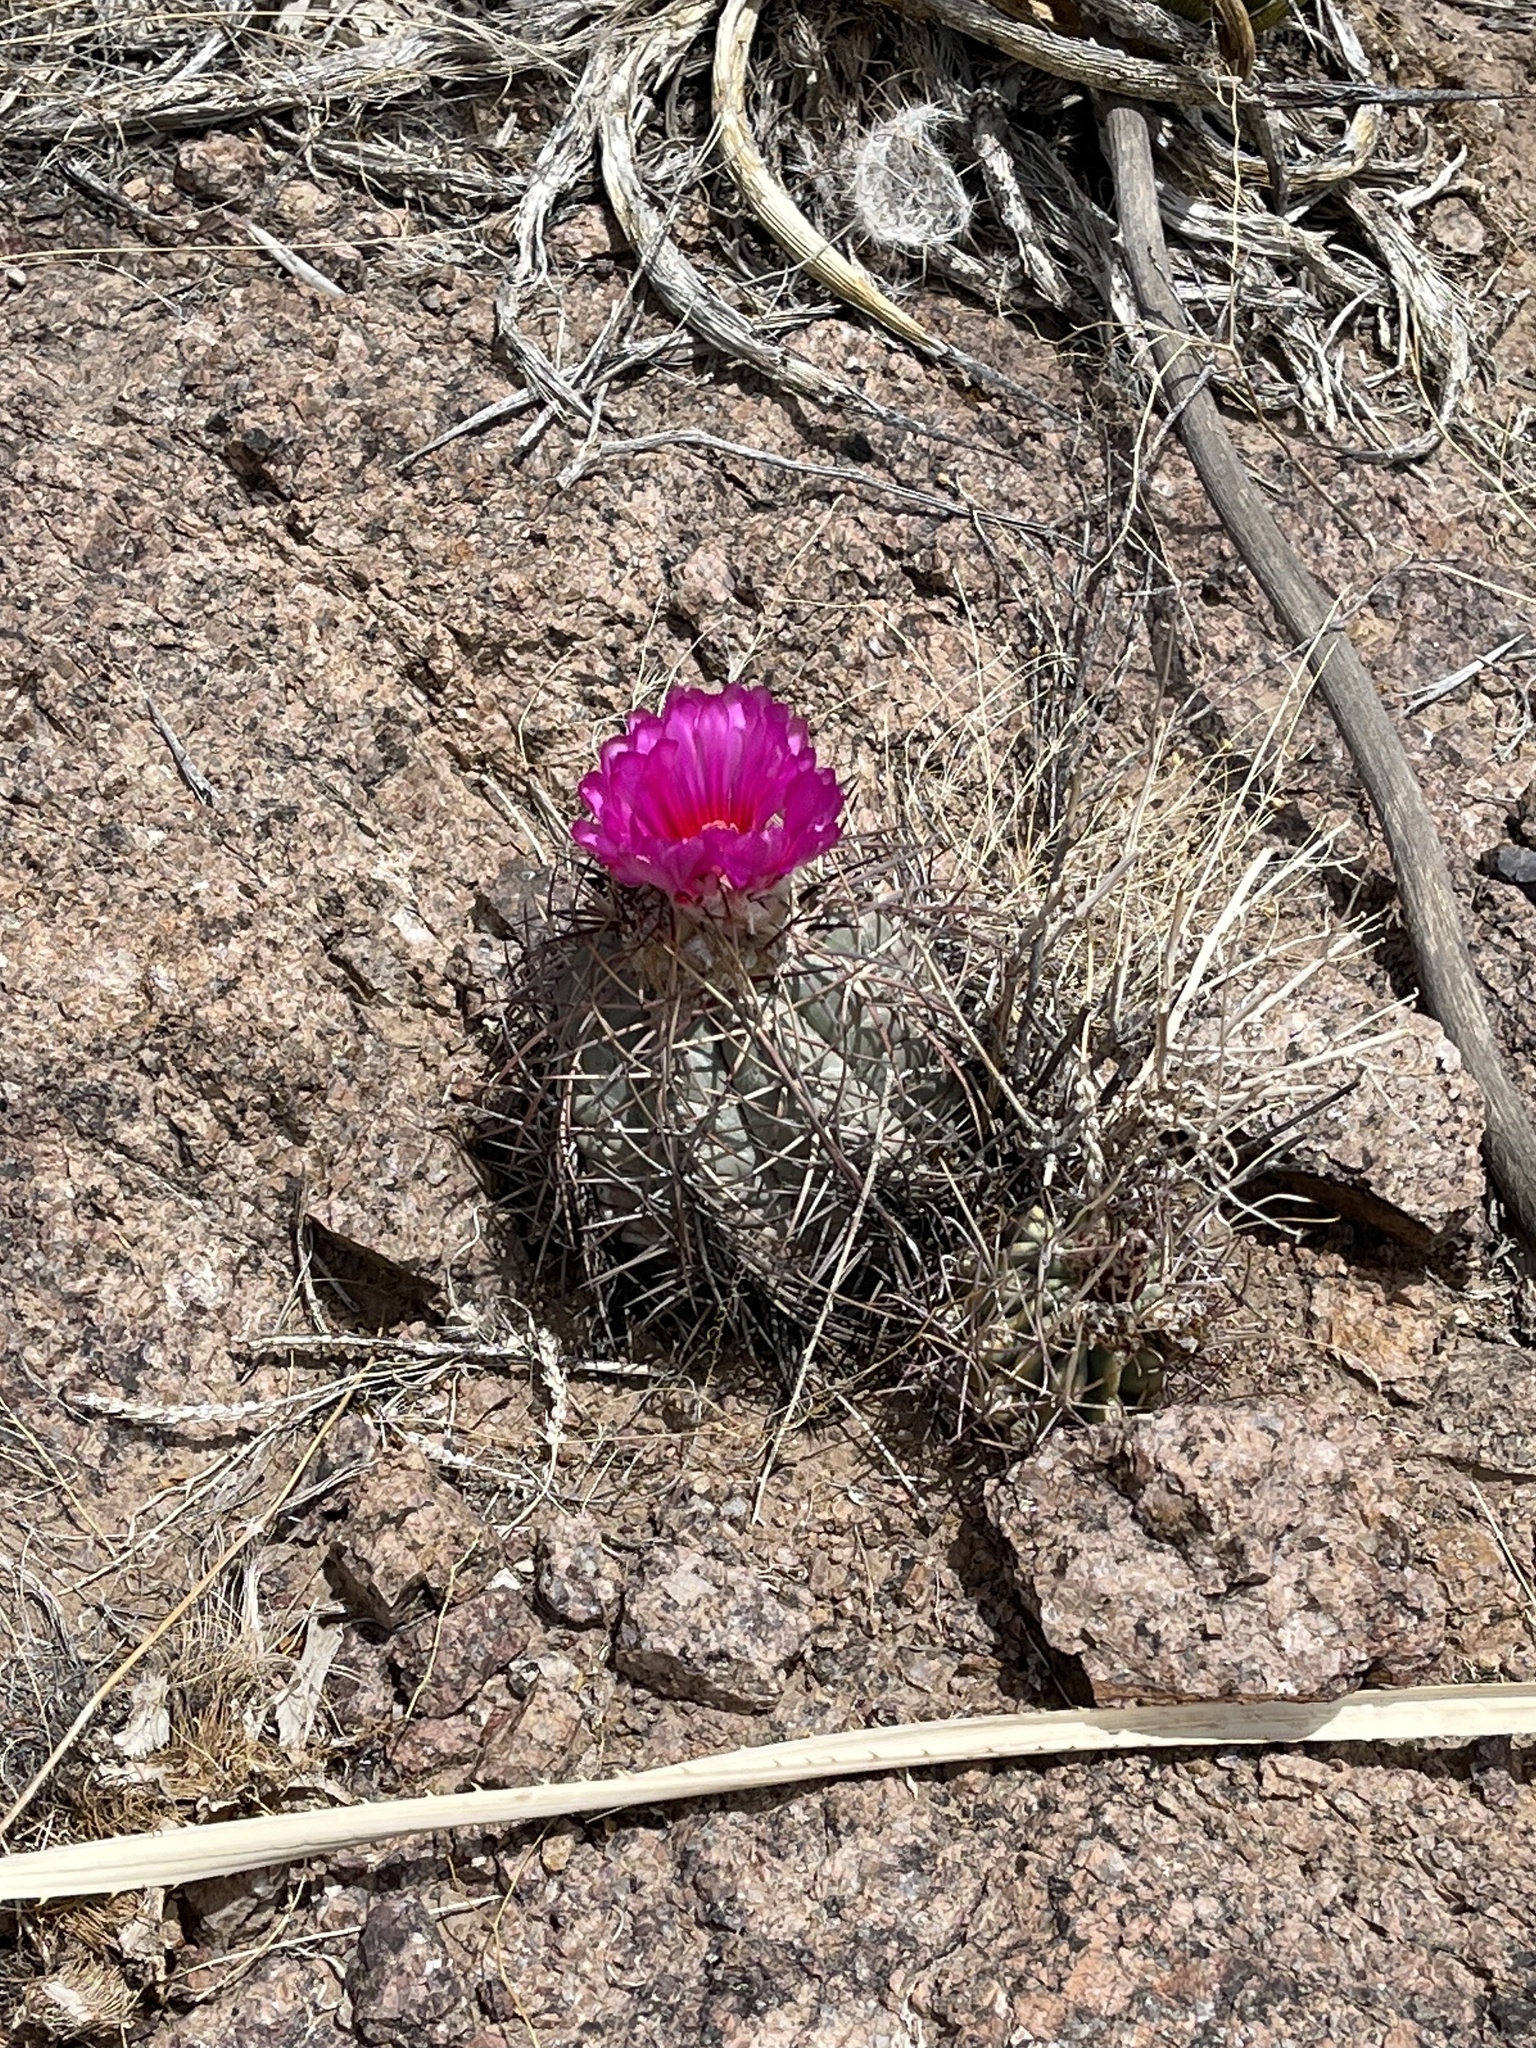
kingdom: Plantae
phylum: Tracheophyta
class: Magnoliopsida
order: Caryophyllales
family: Cactaceae
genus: Echinocactus
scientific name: Echinocactus horizonthalonius
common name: Devilshead
